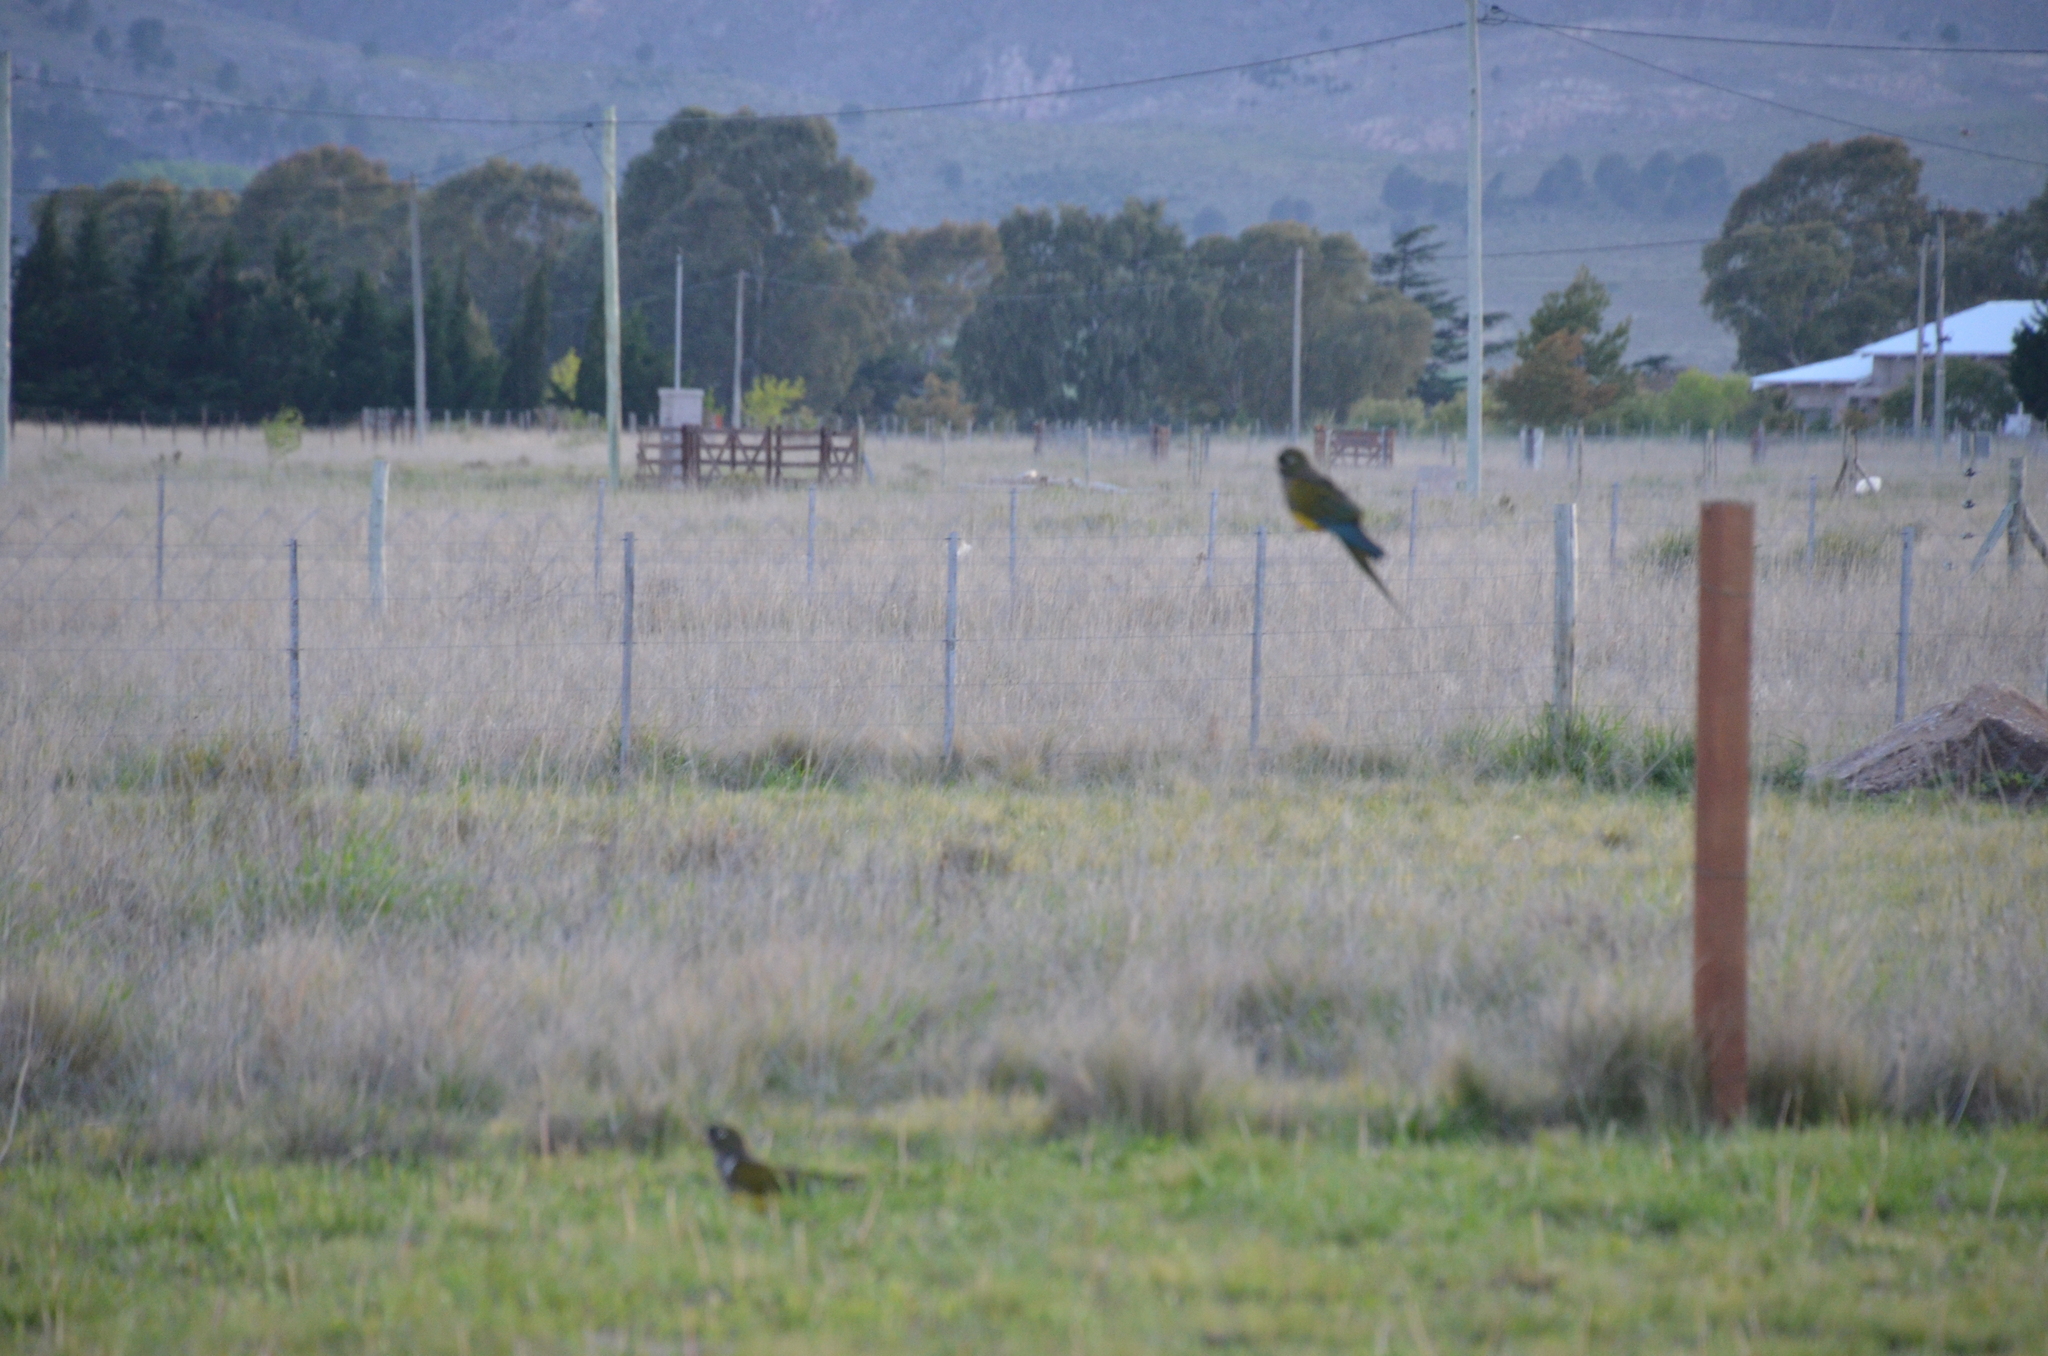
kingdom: Animalia
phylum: Chordata
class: Aves
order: Psittaciformes
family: Psittacidae
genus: Cyanoliseus
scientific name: Cyanoliseus patagonus
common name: Burrowing parrot
